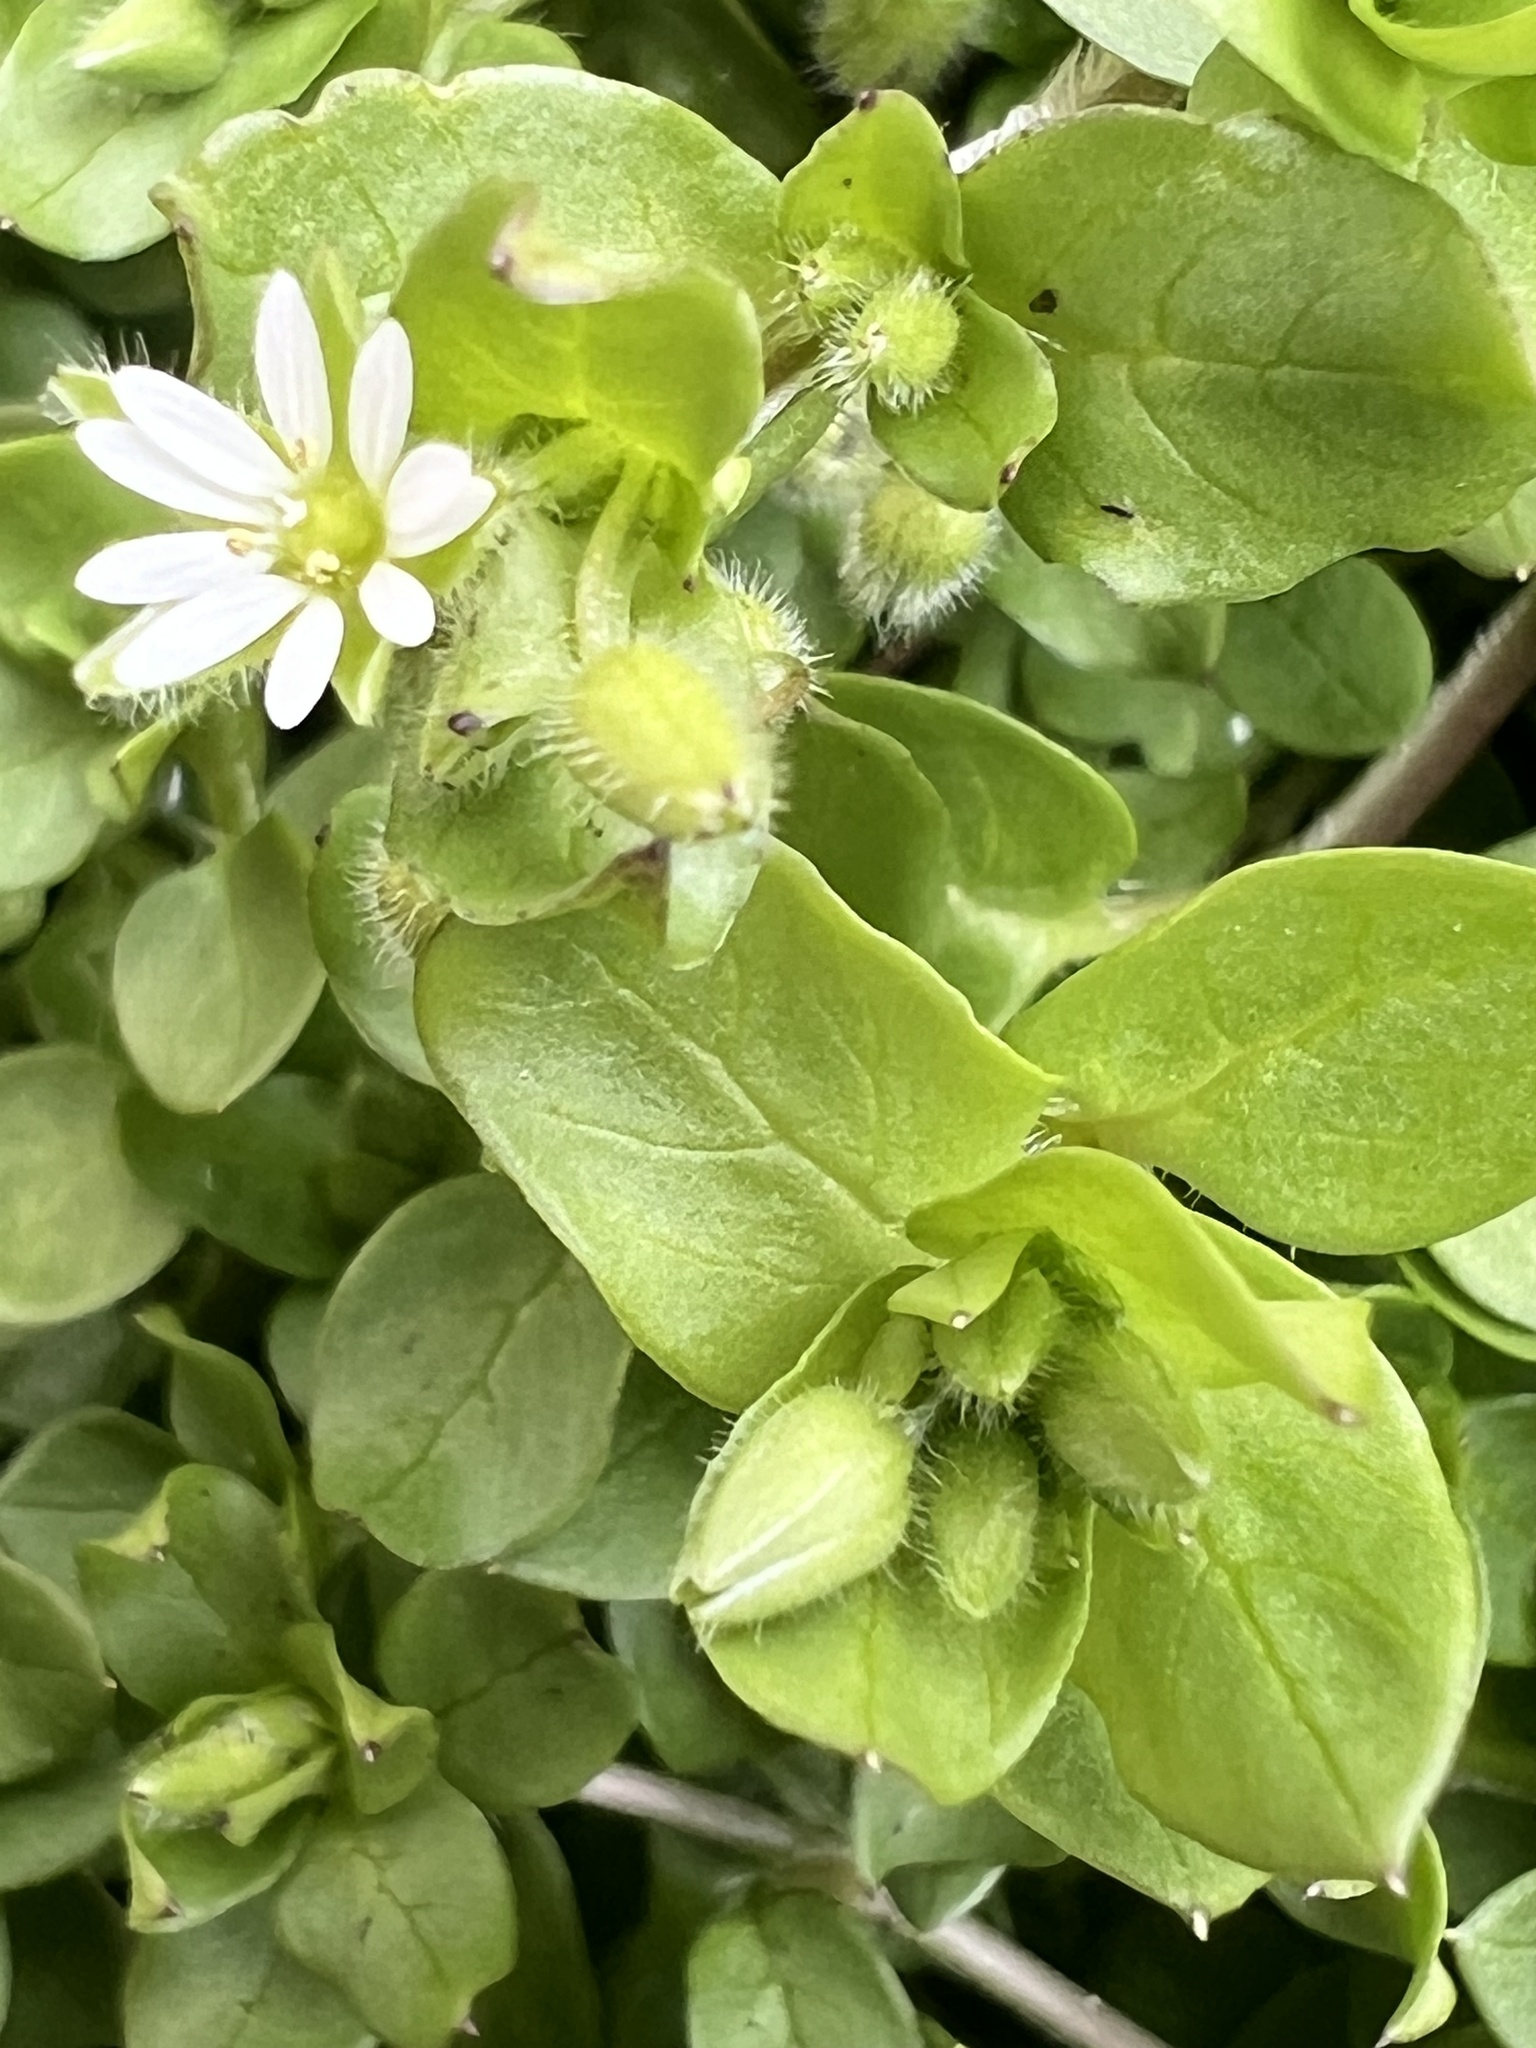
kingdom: Plantae
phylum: Tracheophyta
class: Magnoliopsida
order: Caryophyllales
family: Caryophyllaceae
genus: Stellaria
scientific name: Stellaria media
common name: Common chickweed
